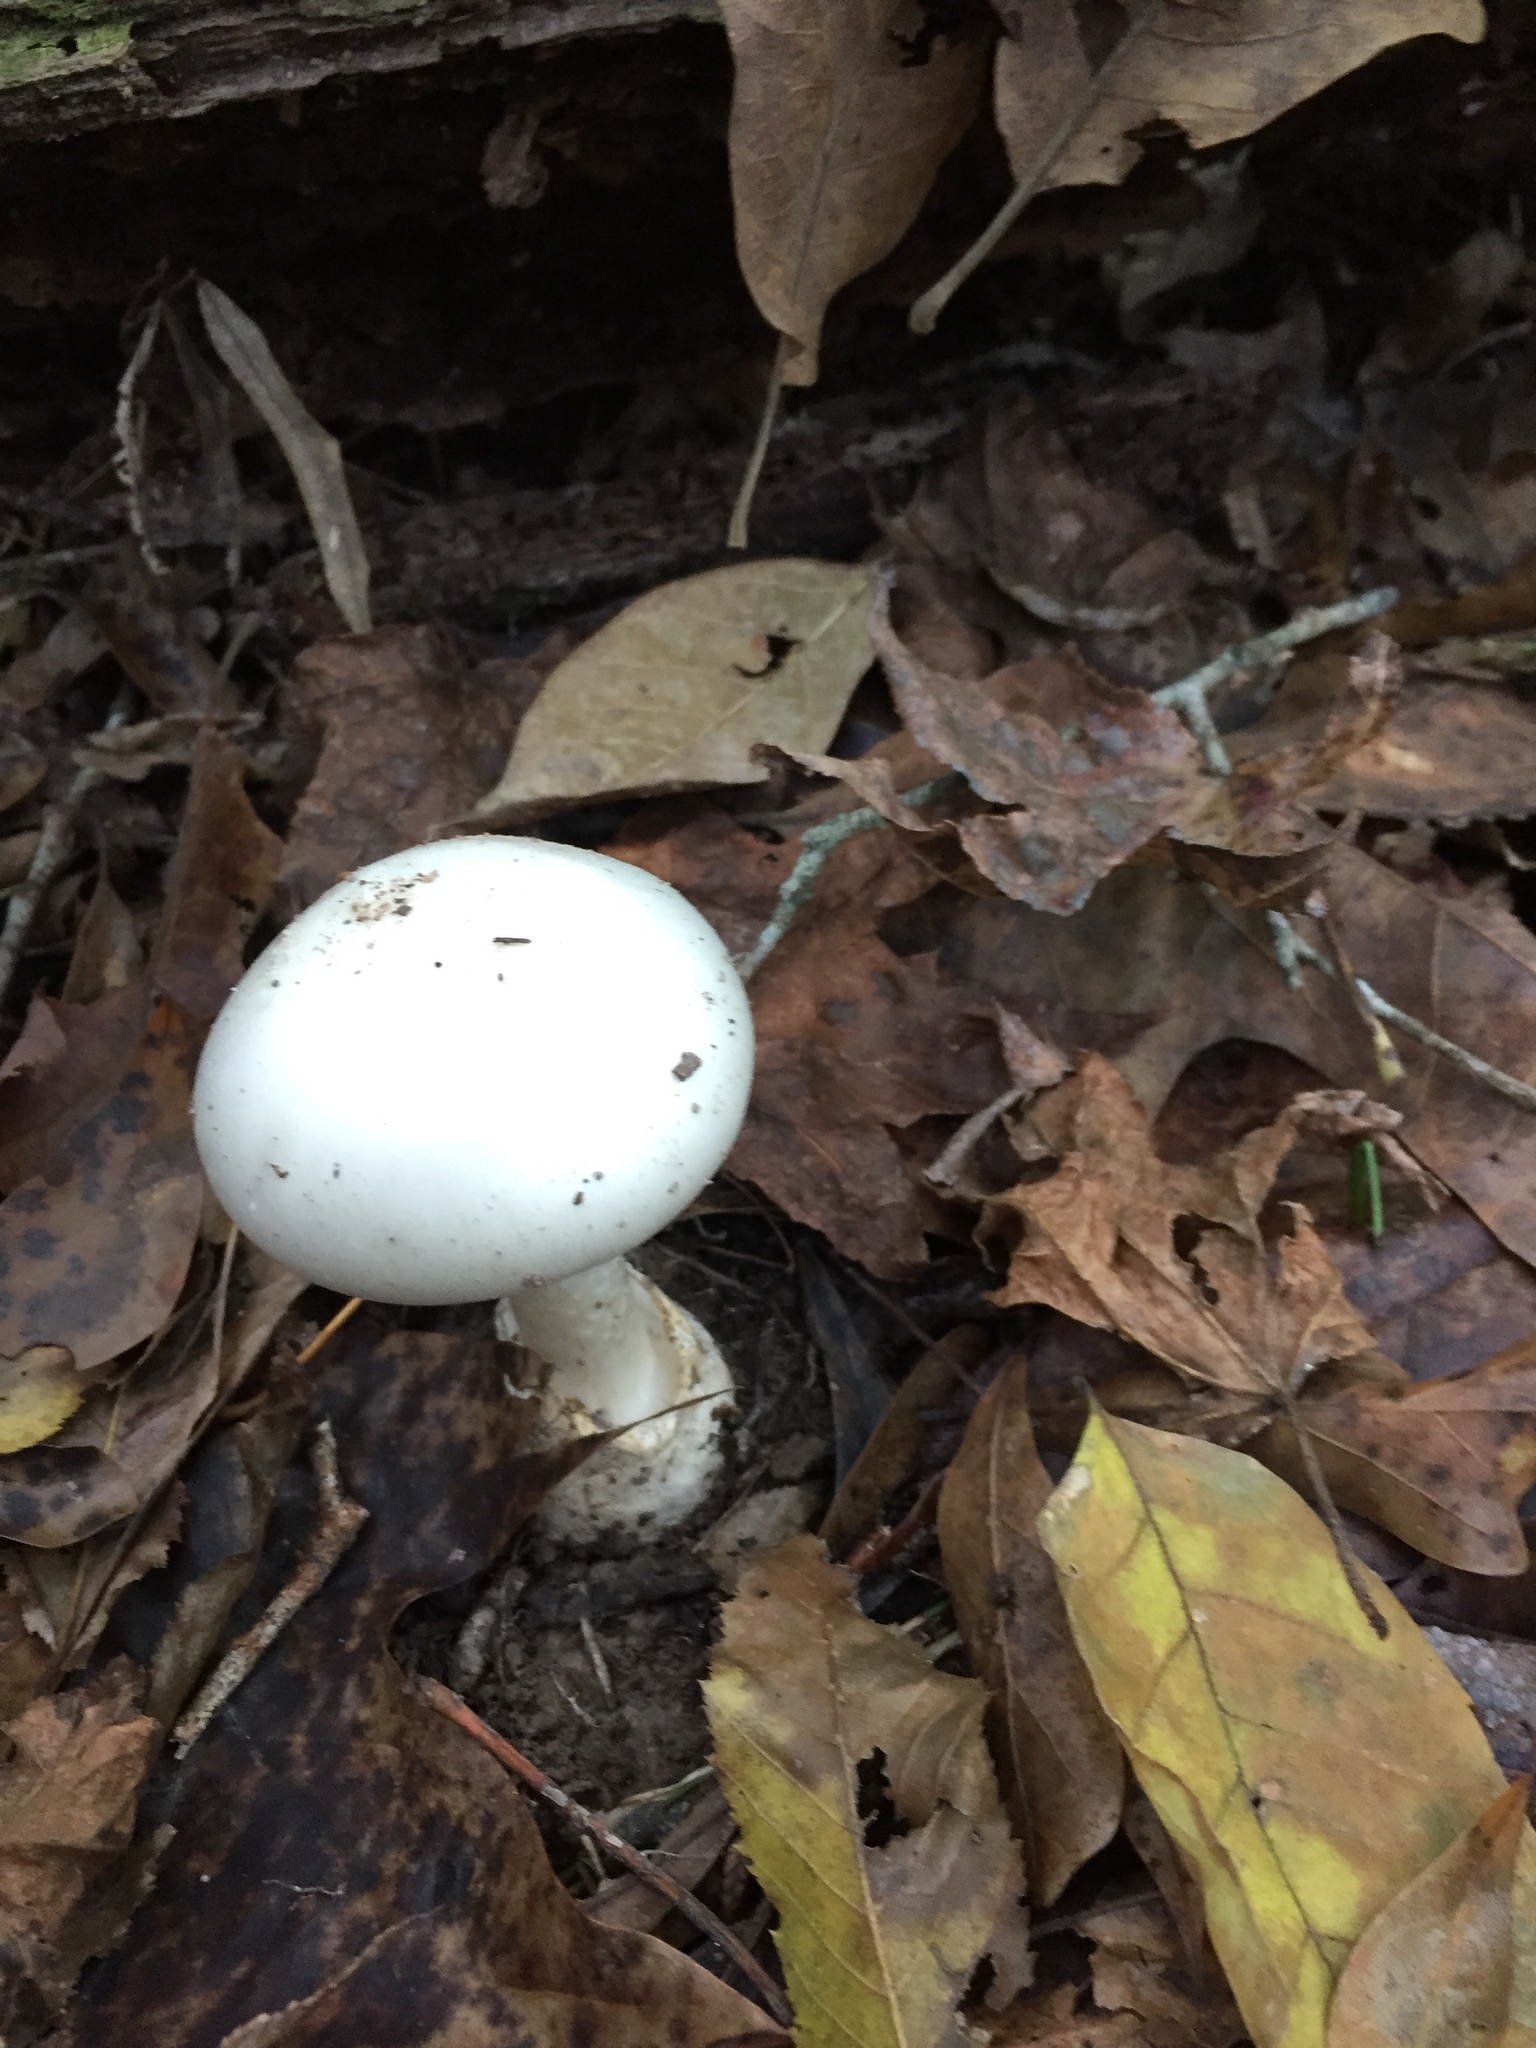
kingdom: Fungi
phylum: Basidiomycota
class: Agaricomycetes
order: Agaricales
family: Amanitaceae
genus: Amanita
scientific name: Amanita bisporigera
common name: Eastern north american destroying angel
